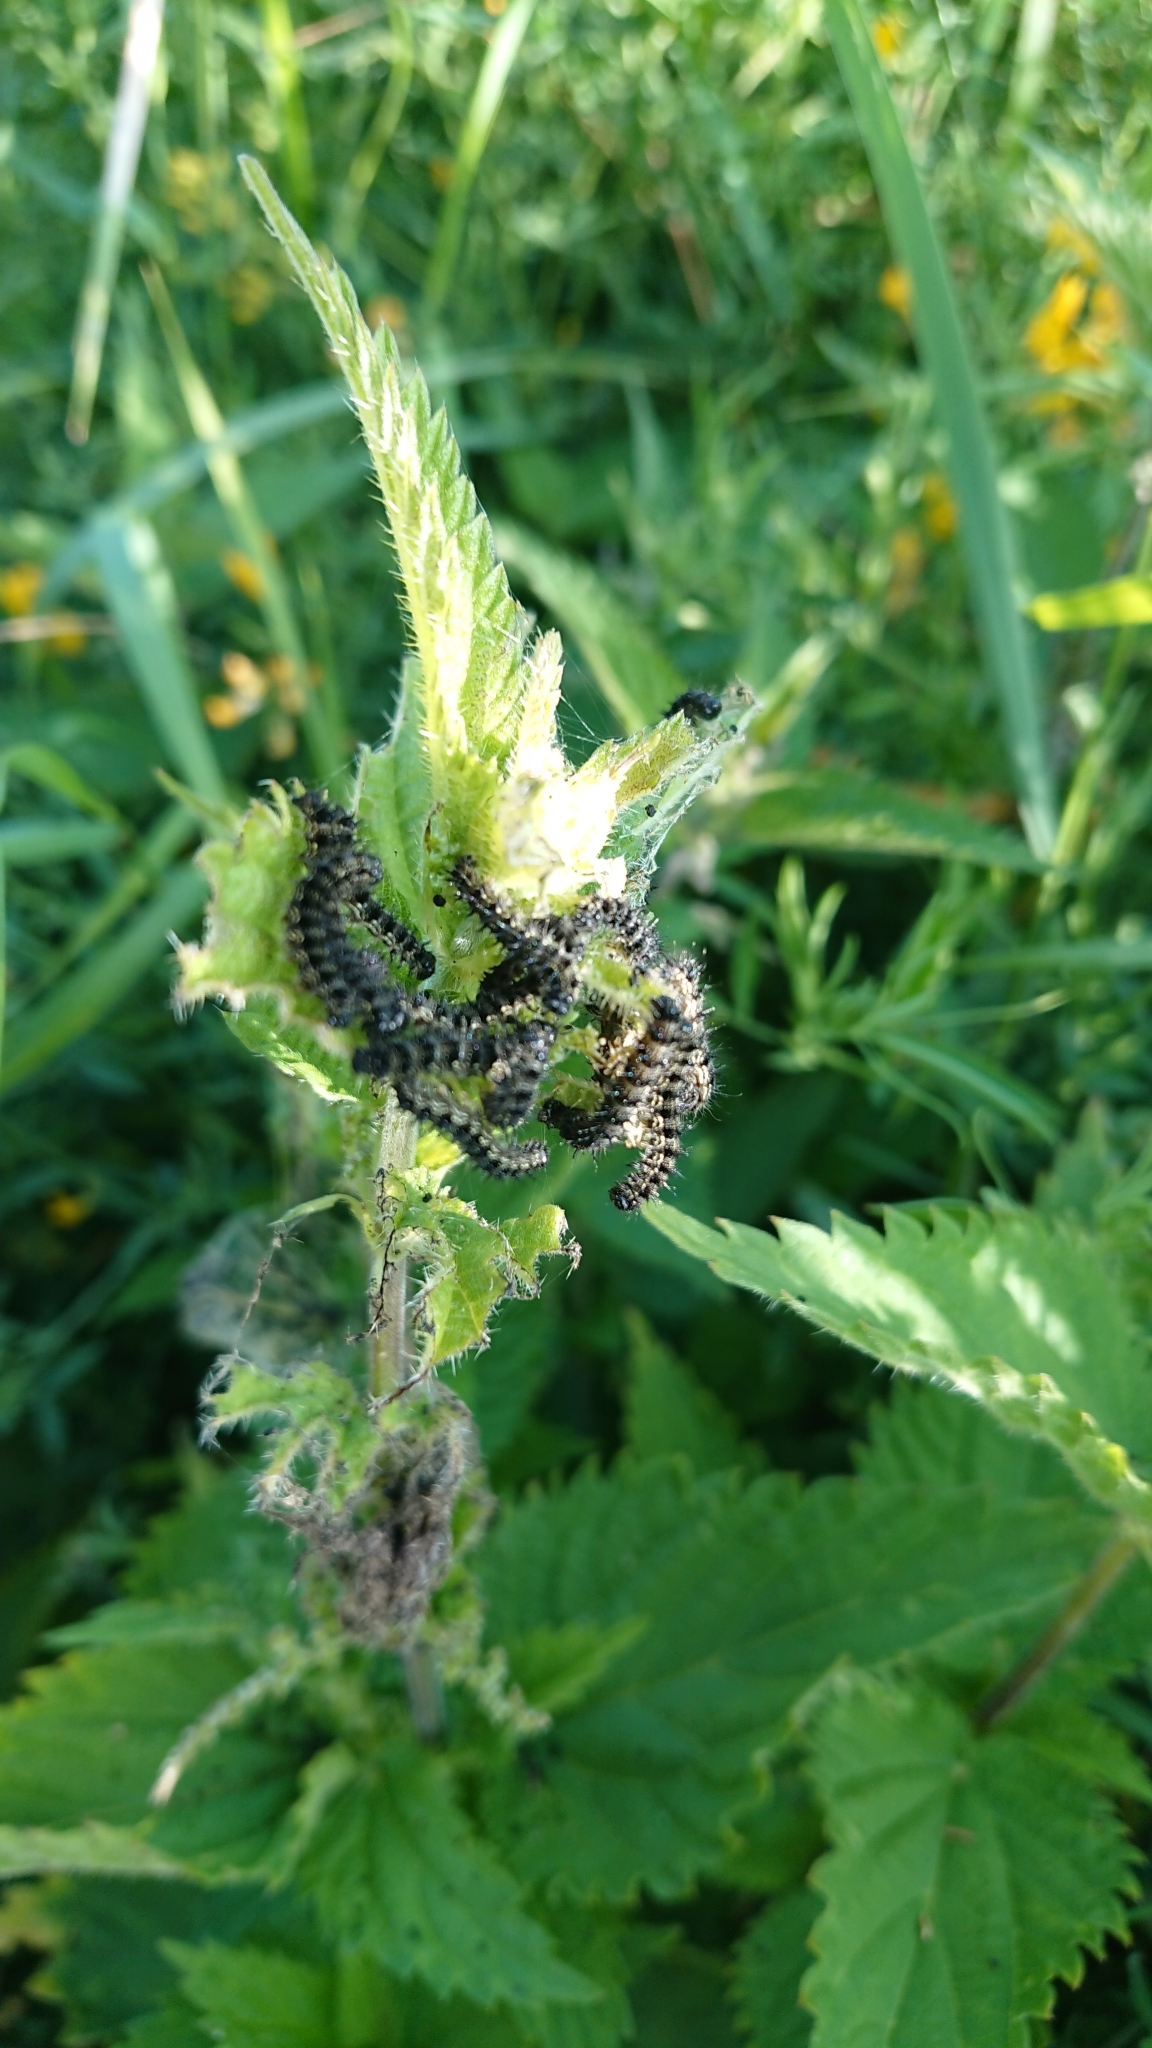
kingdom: Animalia
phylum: Arthropoda
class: Insecta
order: Lepidoptera
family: Nymphalidae
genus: Aglais
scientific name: Aglais urticae
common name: Small tortoiseshell
